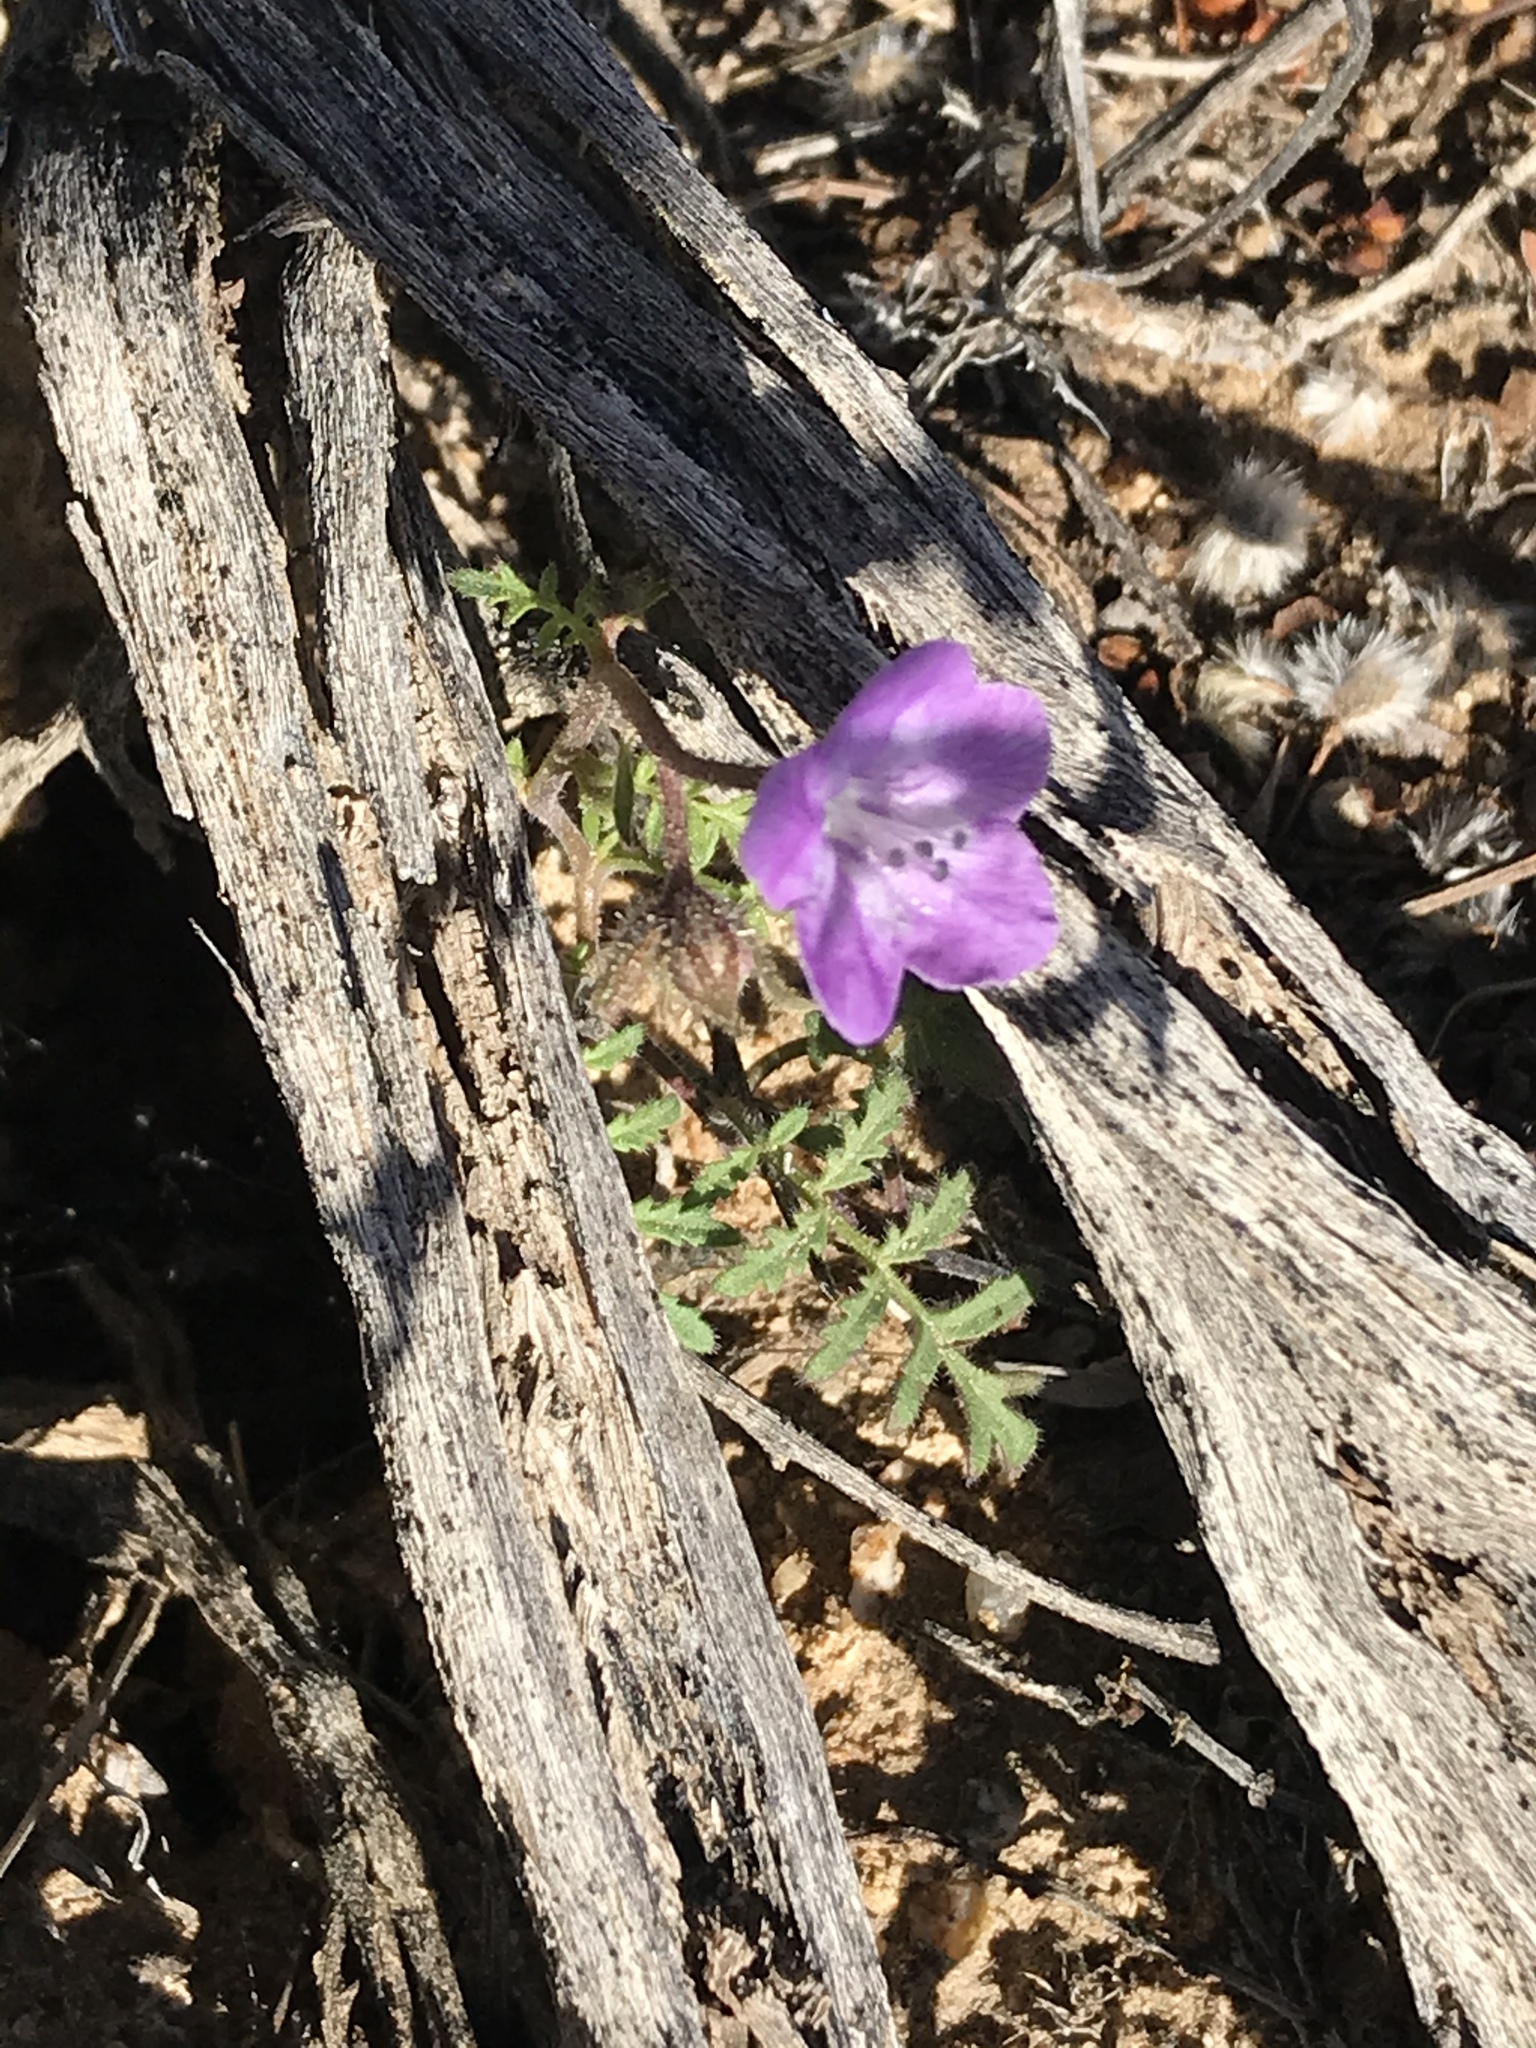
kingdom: Plantae
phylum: Tracheophyta
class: Magnoliopsida
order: Boraginales
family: Hydrophyllaceae
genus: Phacelia
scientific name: Phacelia vallis-mortae
